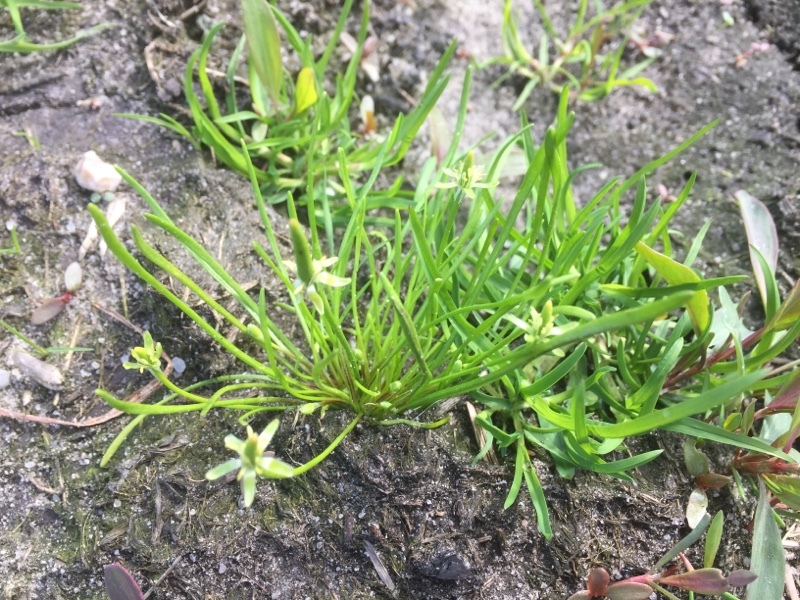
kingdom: Plantae
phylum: Tracheophyta
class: Magnoliopsida
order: Ranunculales
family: Ranunculaceae
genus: Myosurus
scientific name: Myosurus minimus
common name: Mousetail
